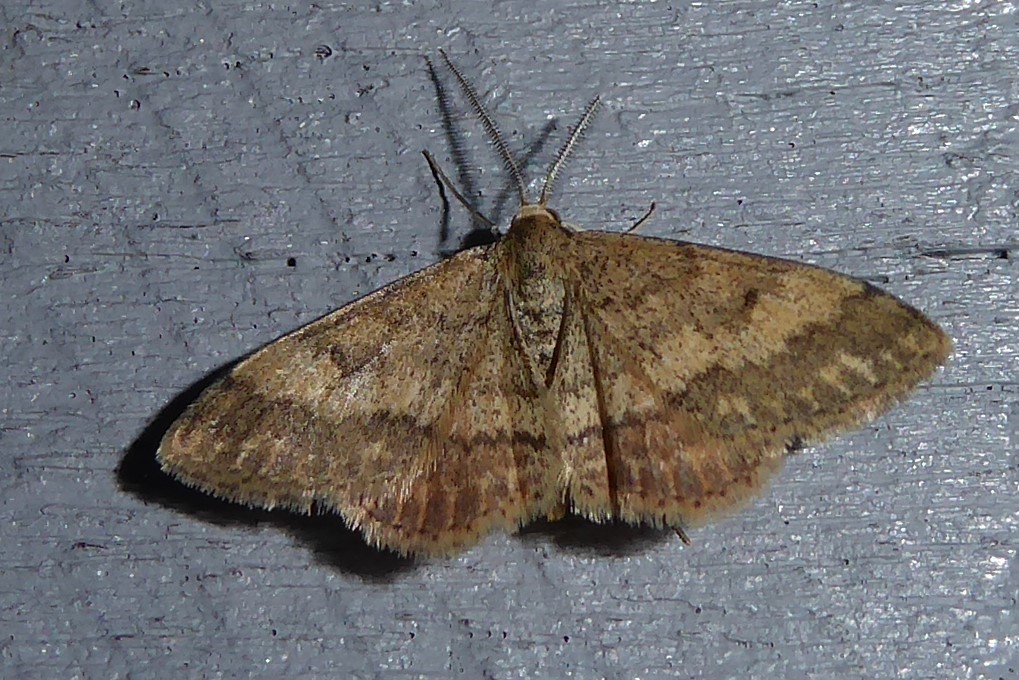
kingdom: Animalia
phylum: Arthropoda
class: Insecta
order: Lepidoptera
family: Geometridae
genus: Scopula
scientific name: Scopula rubraria
